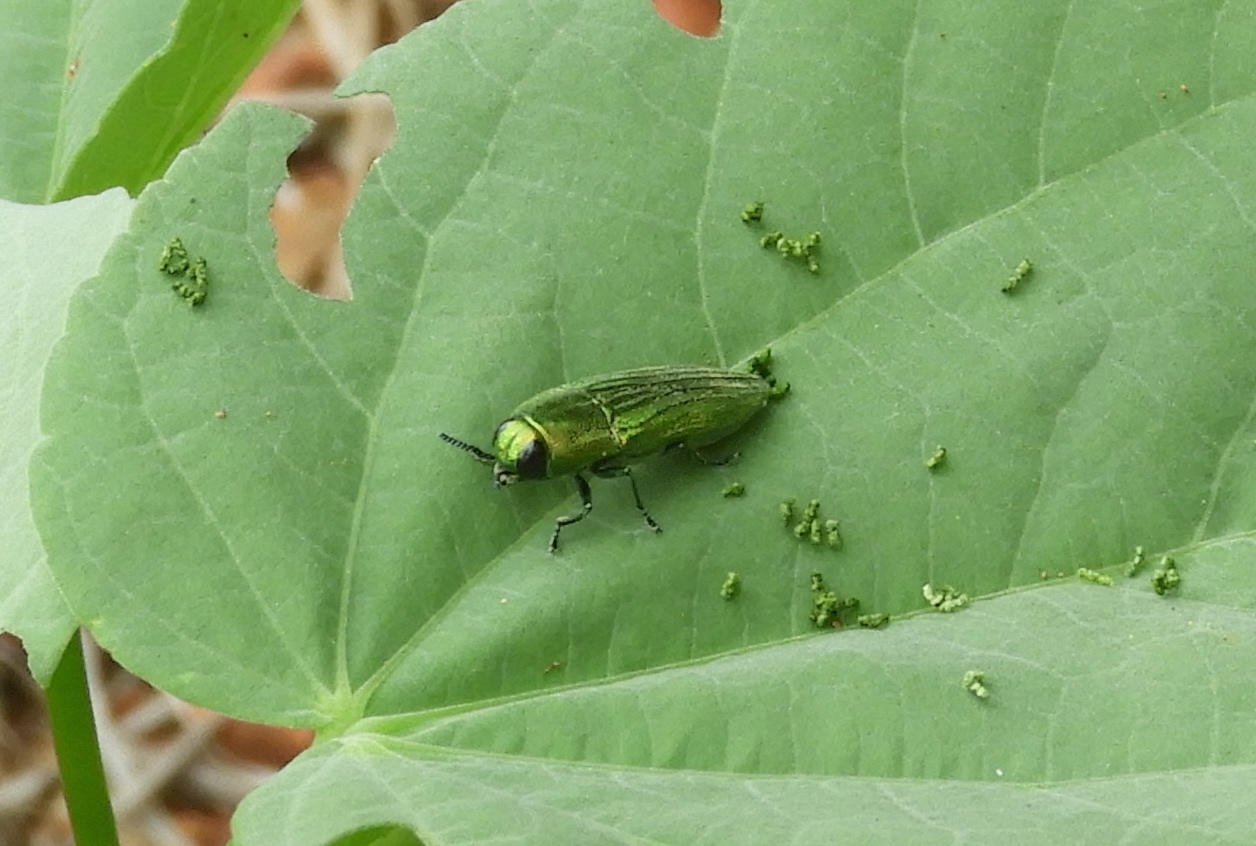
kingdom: Animalia
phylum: Arthropoda
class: Insecta
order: Coleoptera
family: Buprestidae
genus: Agaeocera
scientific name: Agaeocera scintillans
